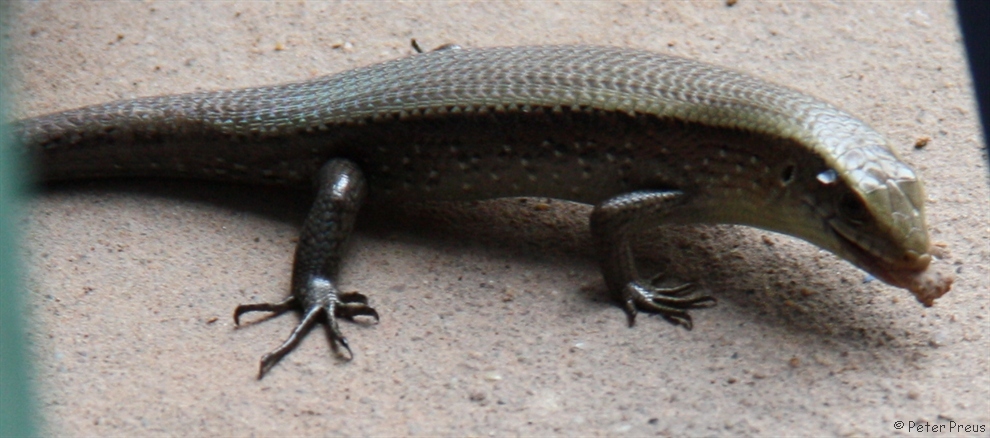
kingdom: Animalia
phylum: Chordata
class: Squamata
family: Scincidae
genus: Eutropis
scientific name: Eutropis multifasciata
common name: Common mabuya
